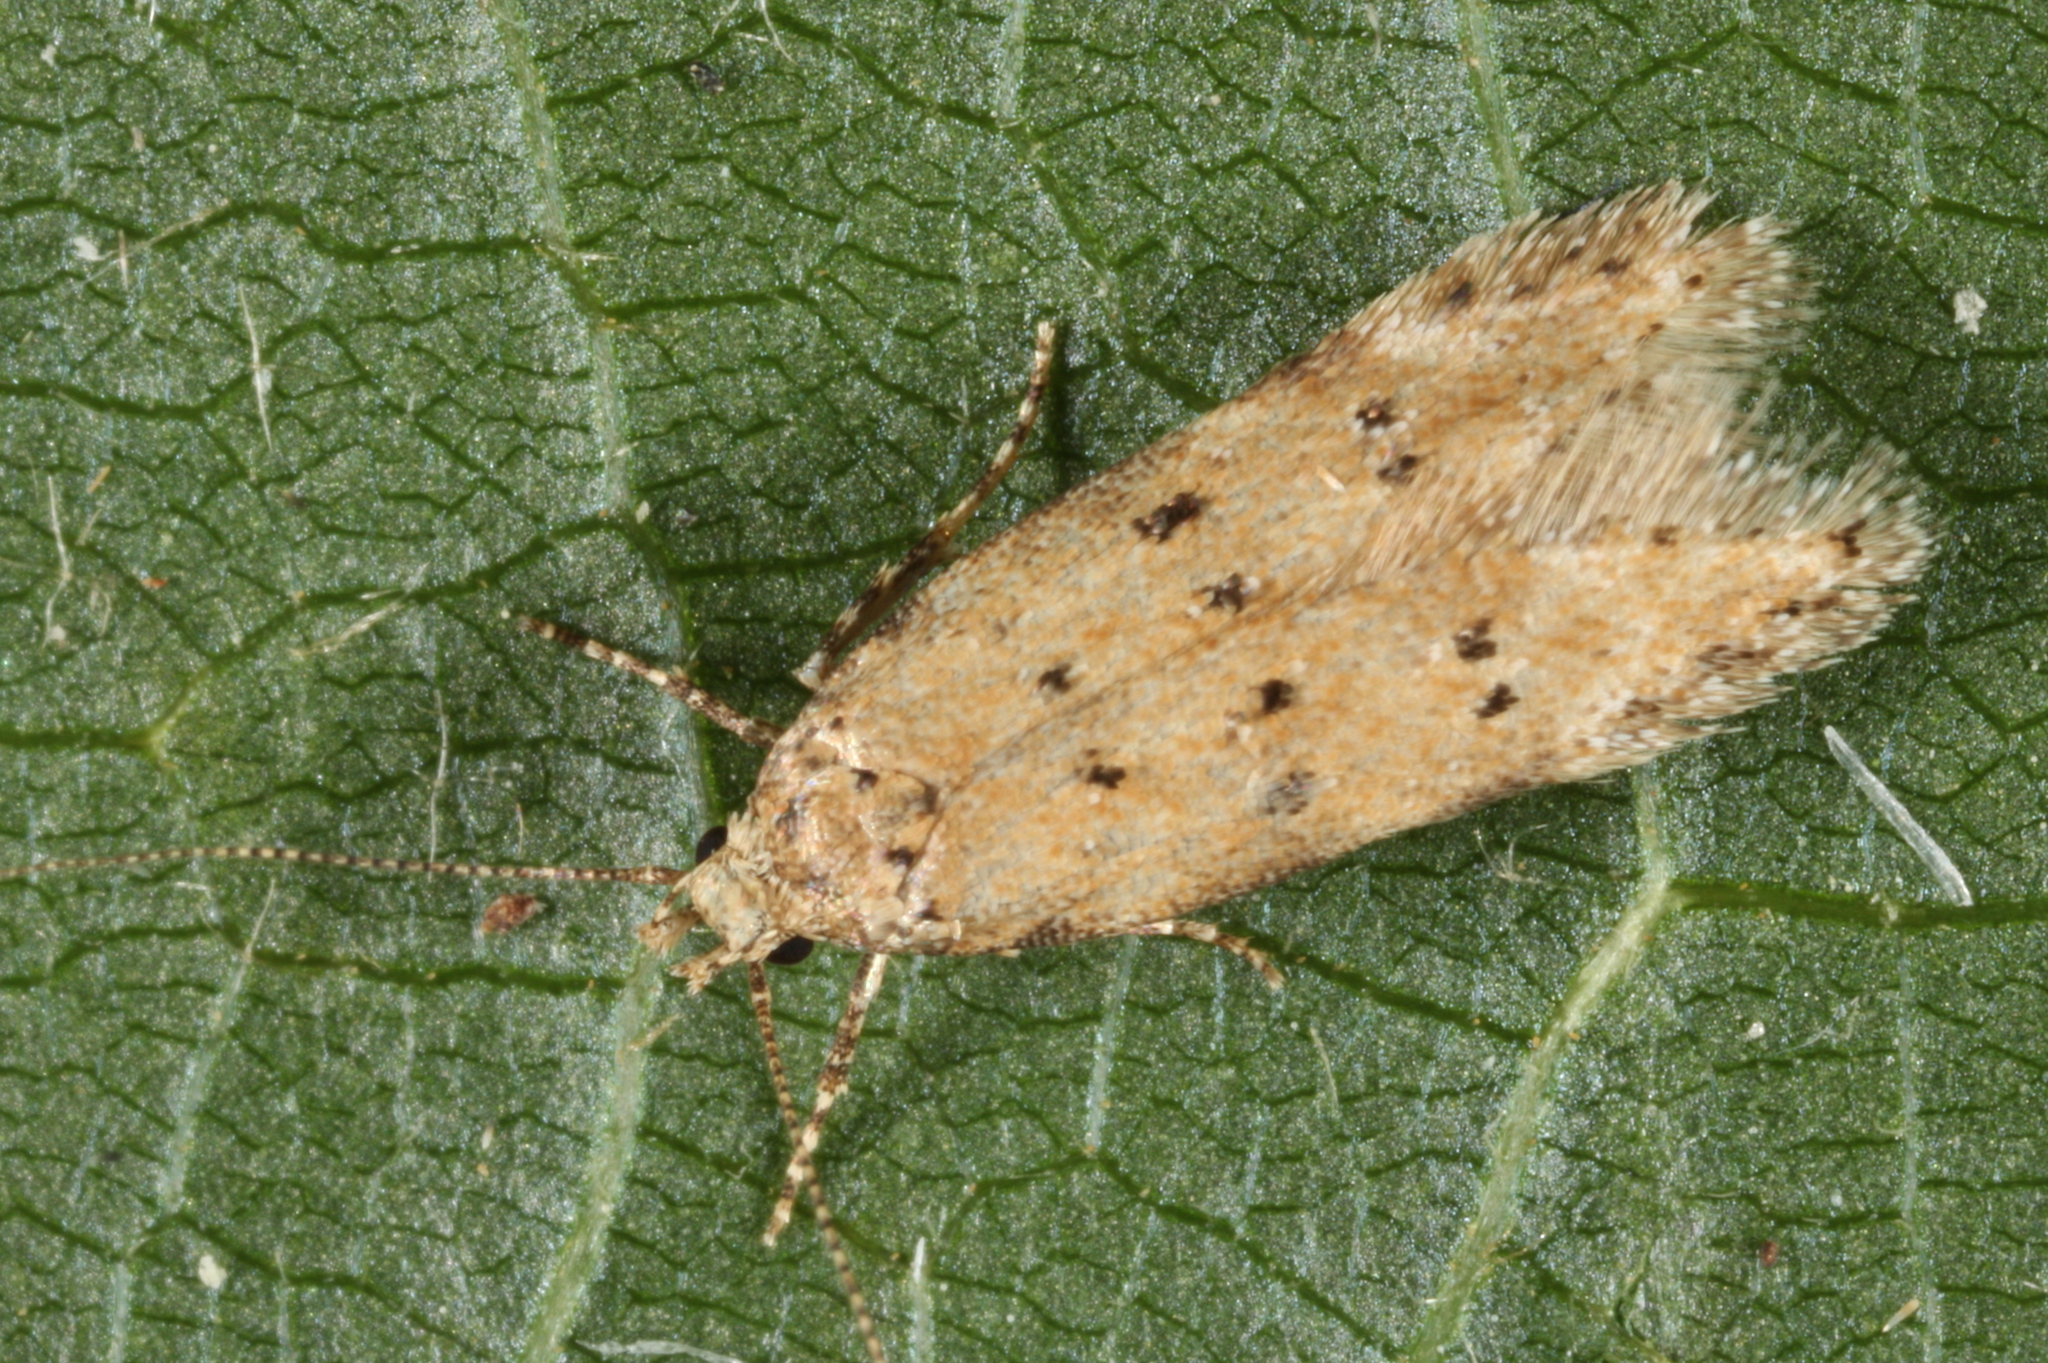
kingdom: Animalia
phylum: Arthropoda
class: Insecta
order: Lepidoptera
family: Gelechiidae
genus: Pseudotelphusa
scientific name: Pseudotelphusa paripunctella
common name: Tawny groundling
